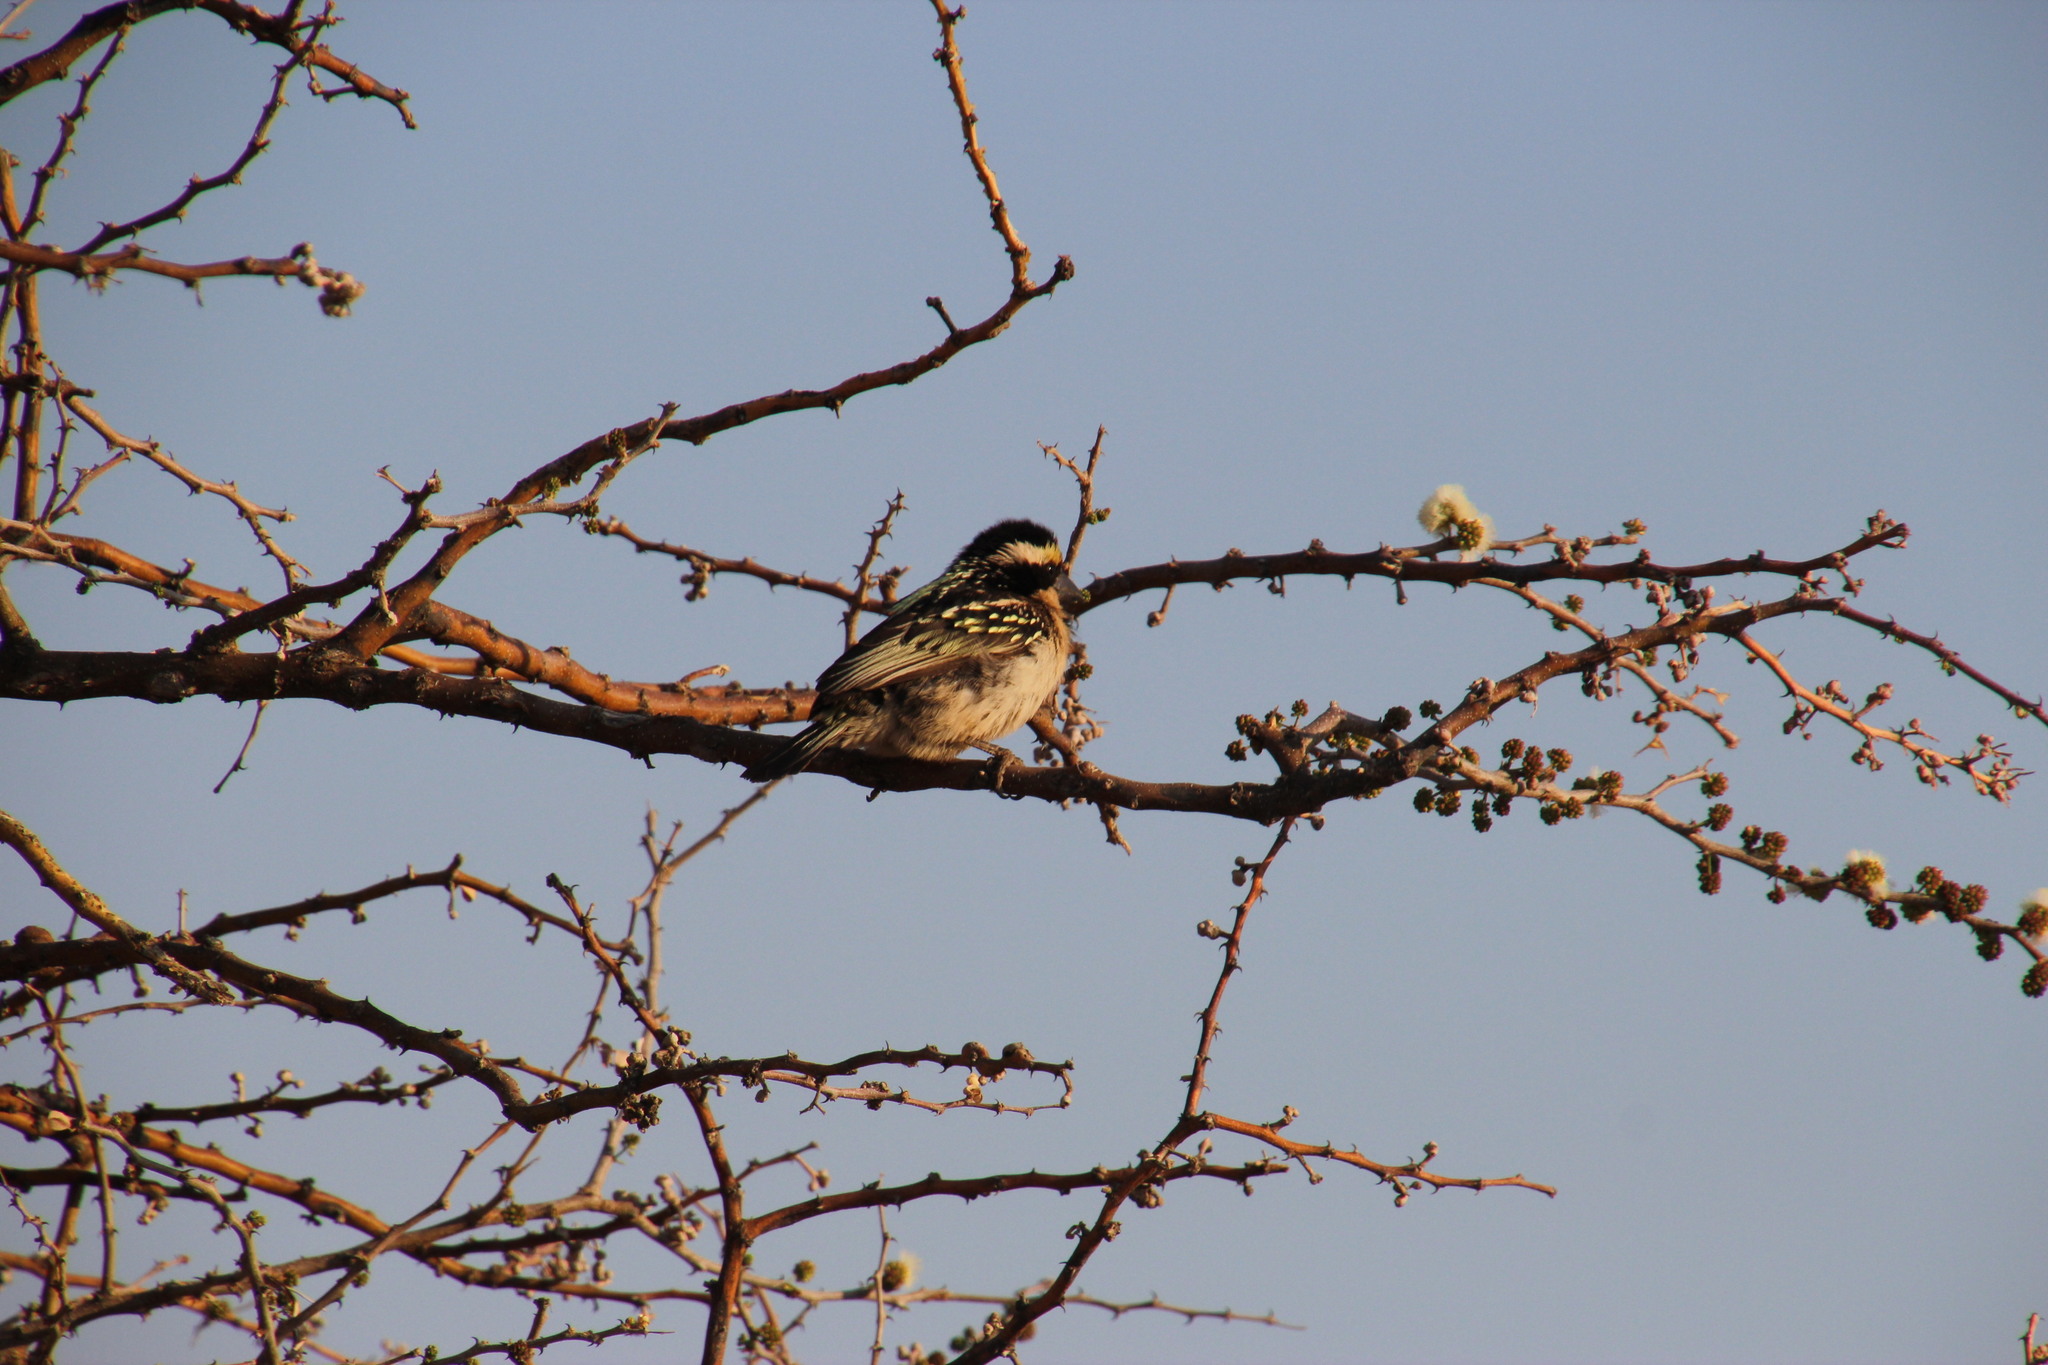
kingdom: Animalia
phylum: Chordata
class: Aves
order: Piciformes
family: Lybiidae
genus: Tricholaema
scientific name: Tricholaema leucomelas
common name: Acacia pied barbet
